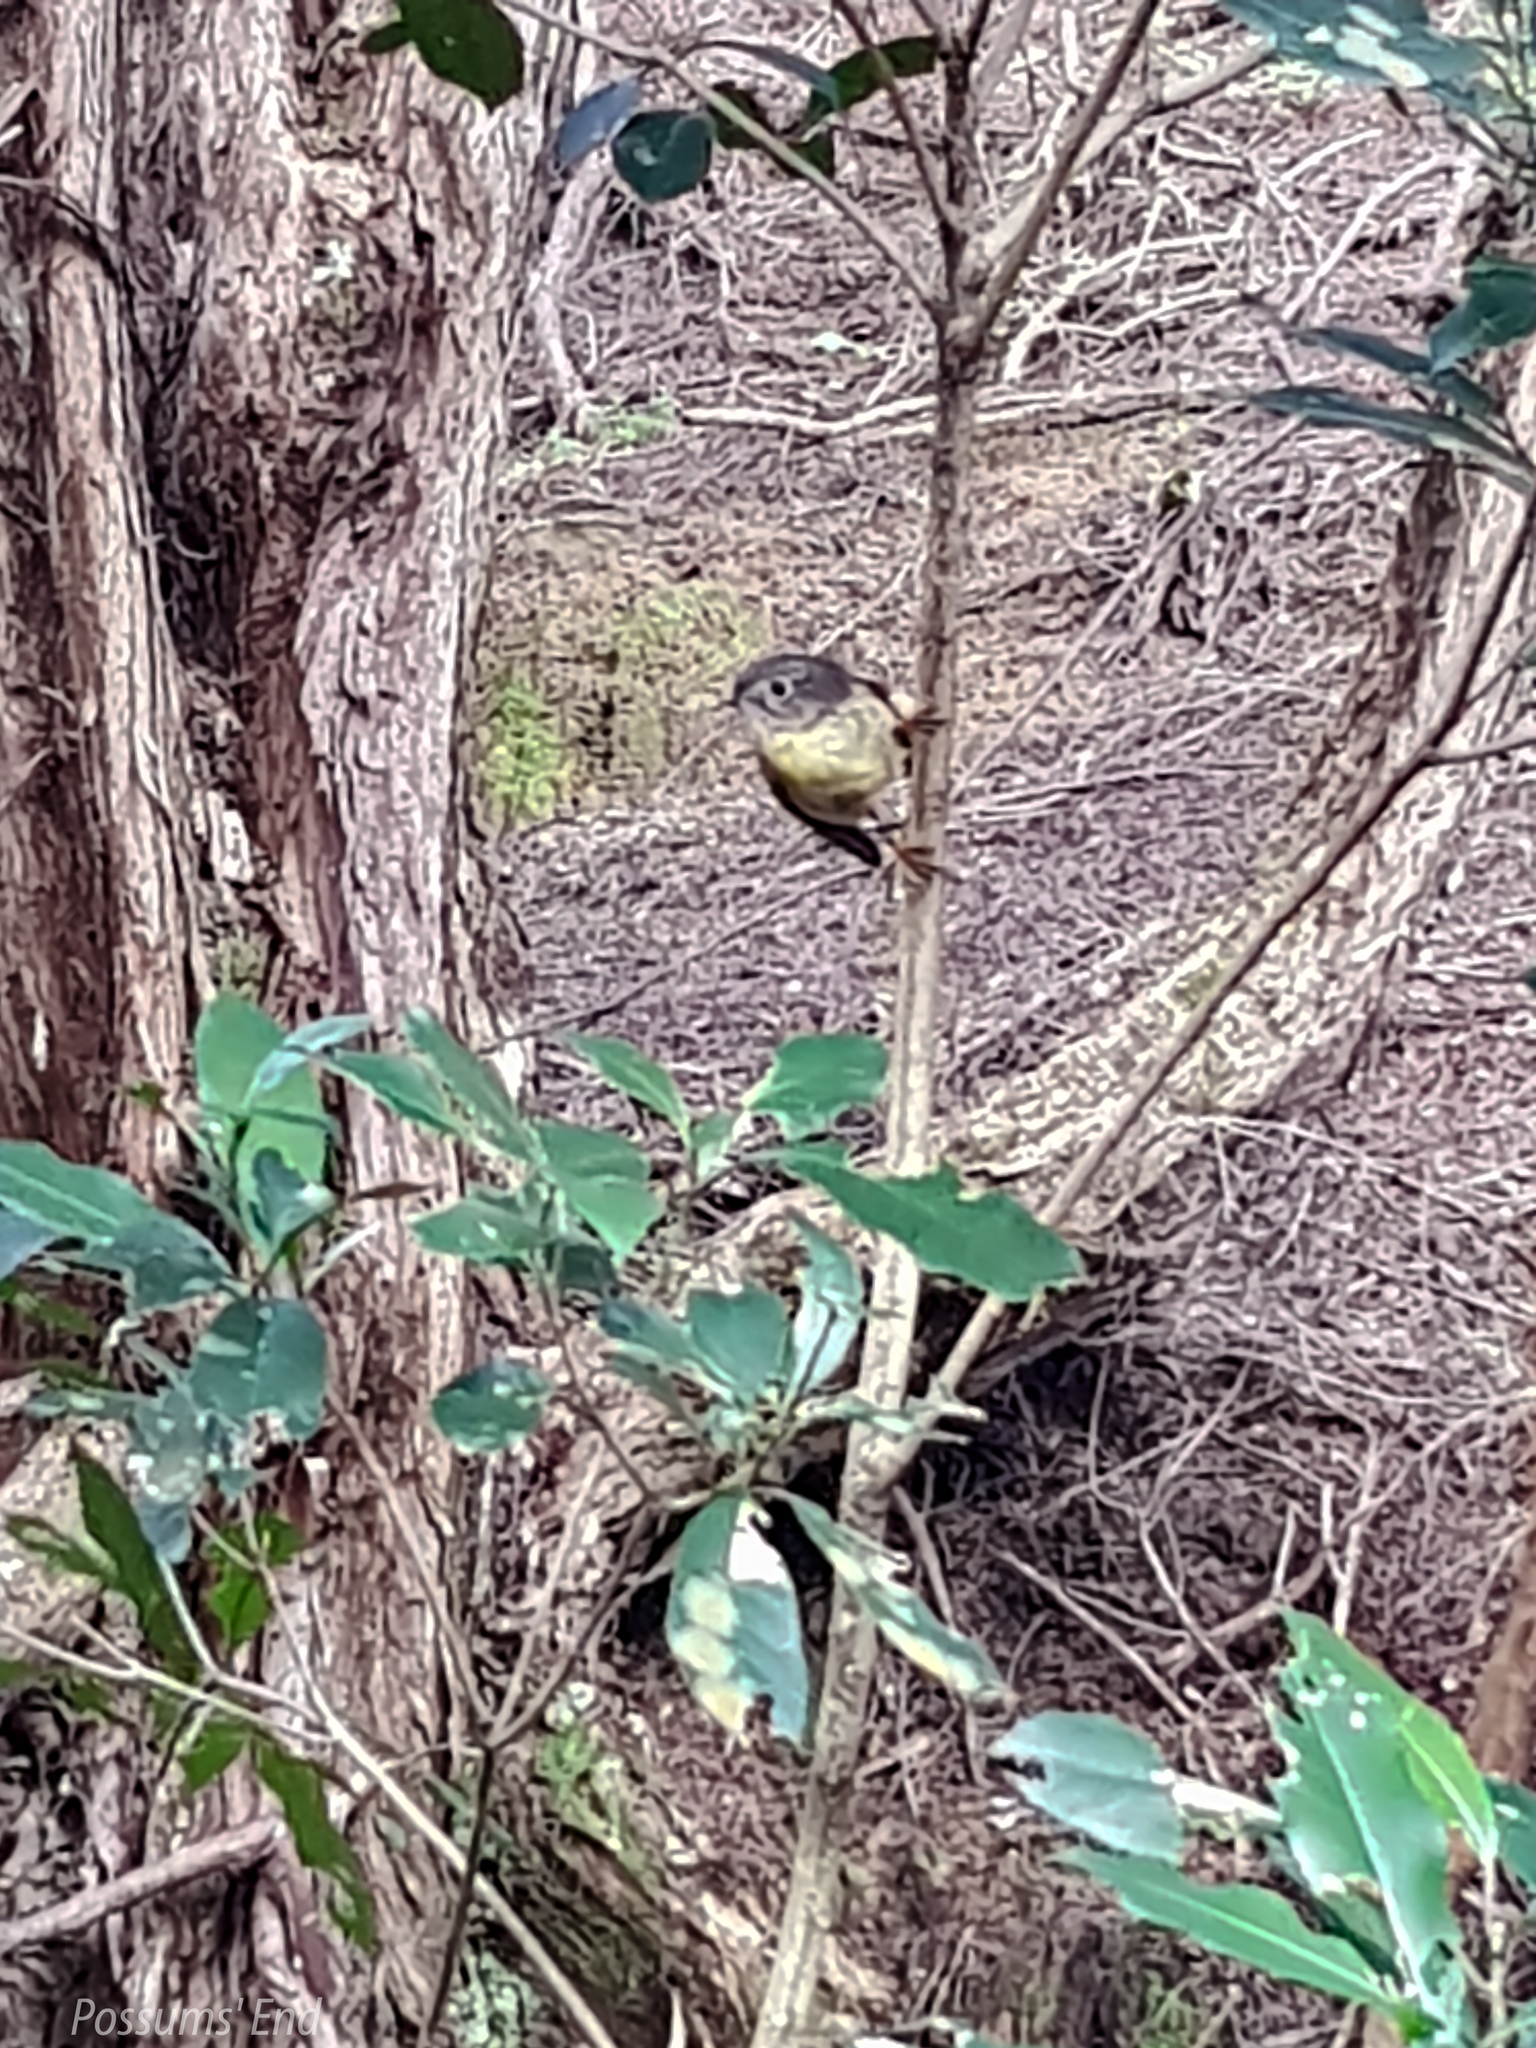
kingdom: Animalia
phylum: Chordata
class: Aves
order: Passeriformes
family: Petroicidae
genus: Petroica
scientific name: Petroica macrocephala
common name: Tomtit
